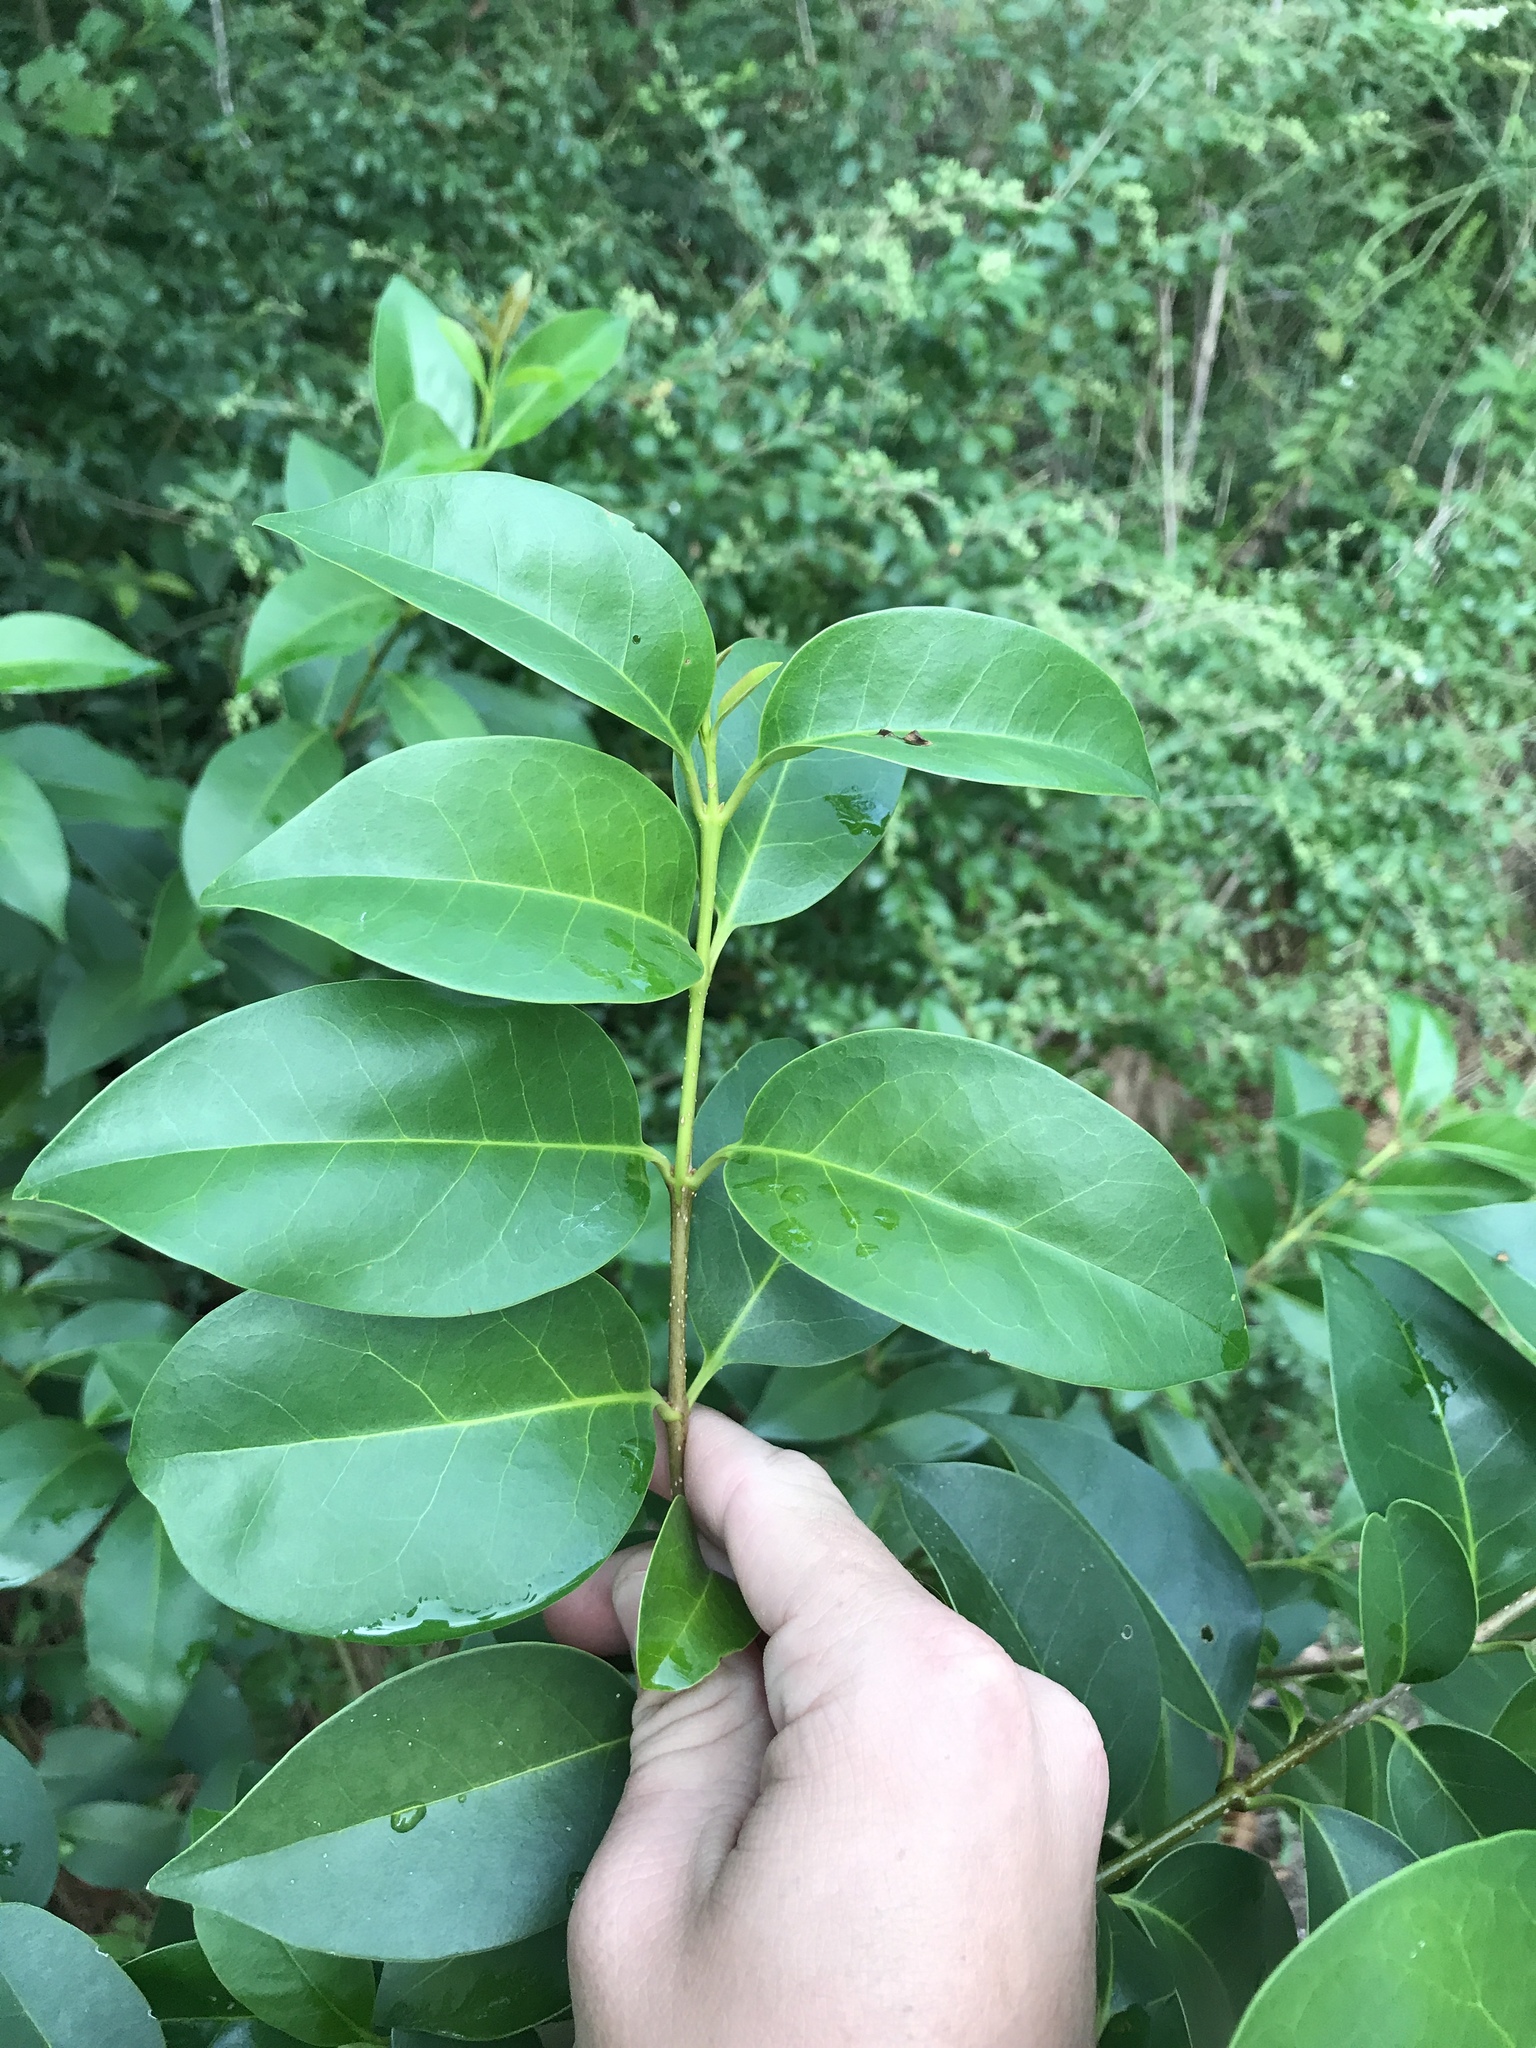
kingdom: Plantae
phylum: Tracheophyta
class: Magnoliopsida
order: Lamiales
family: Oleaceae
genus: Ligustrum
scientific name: Ligustrum lucidum
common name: Glossy privet
